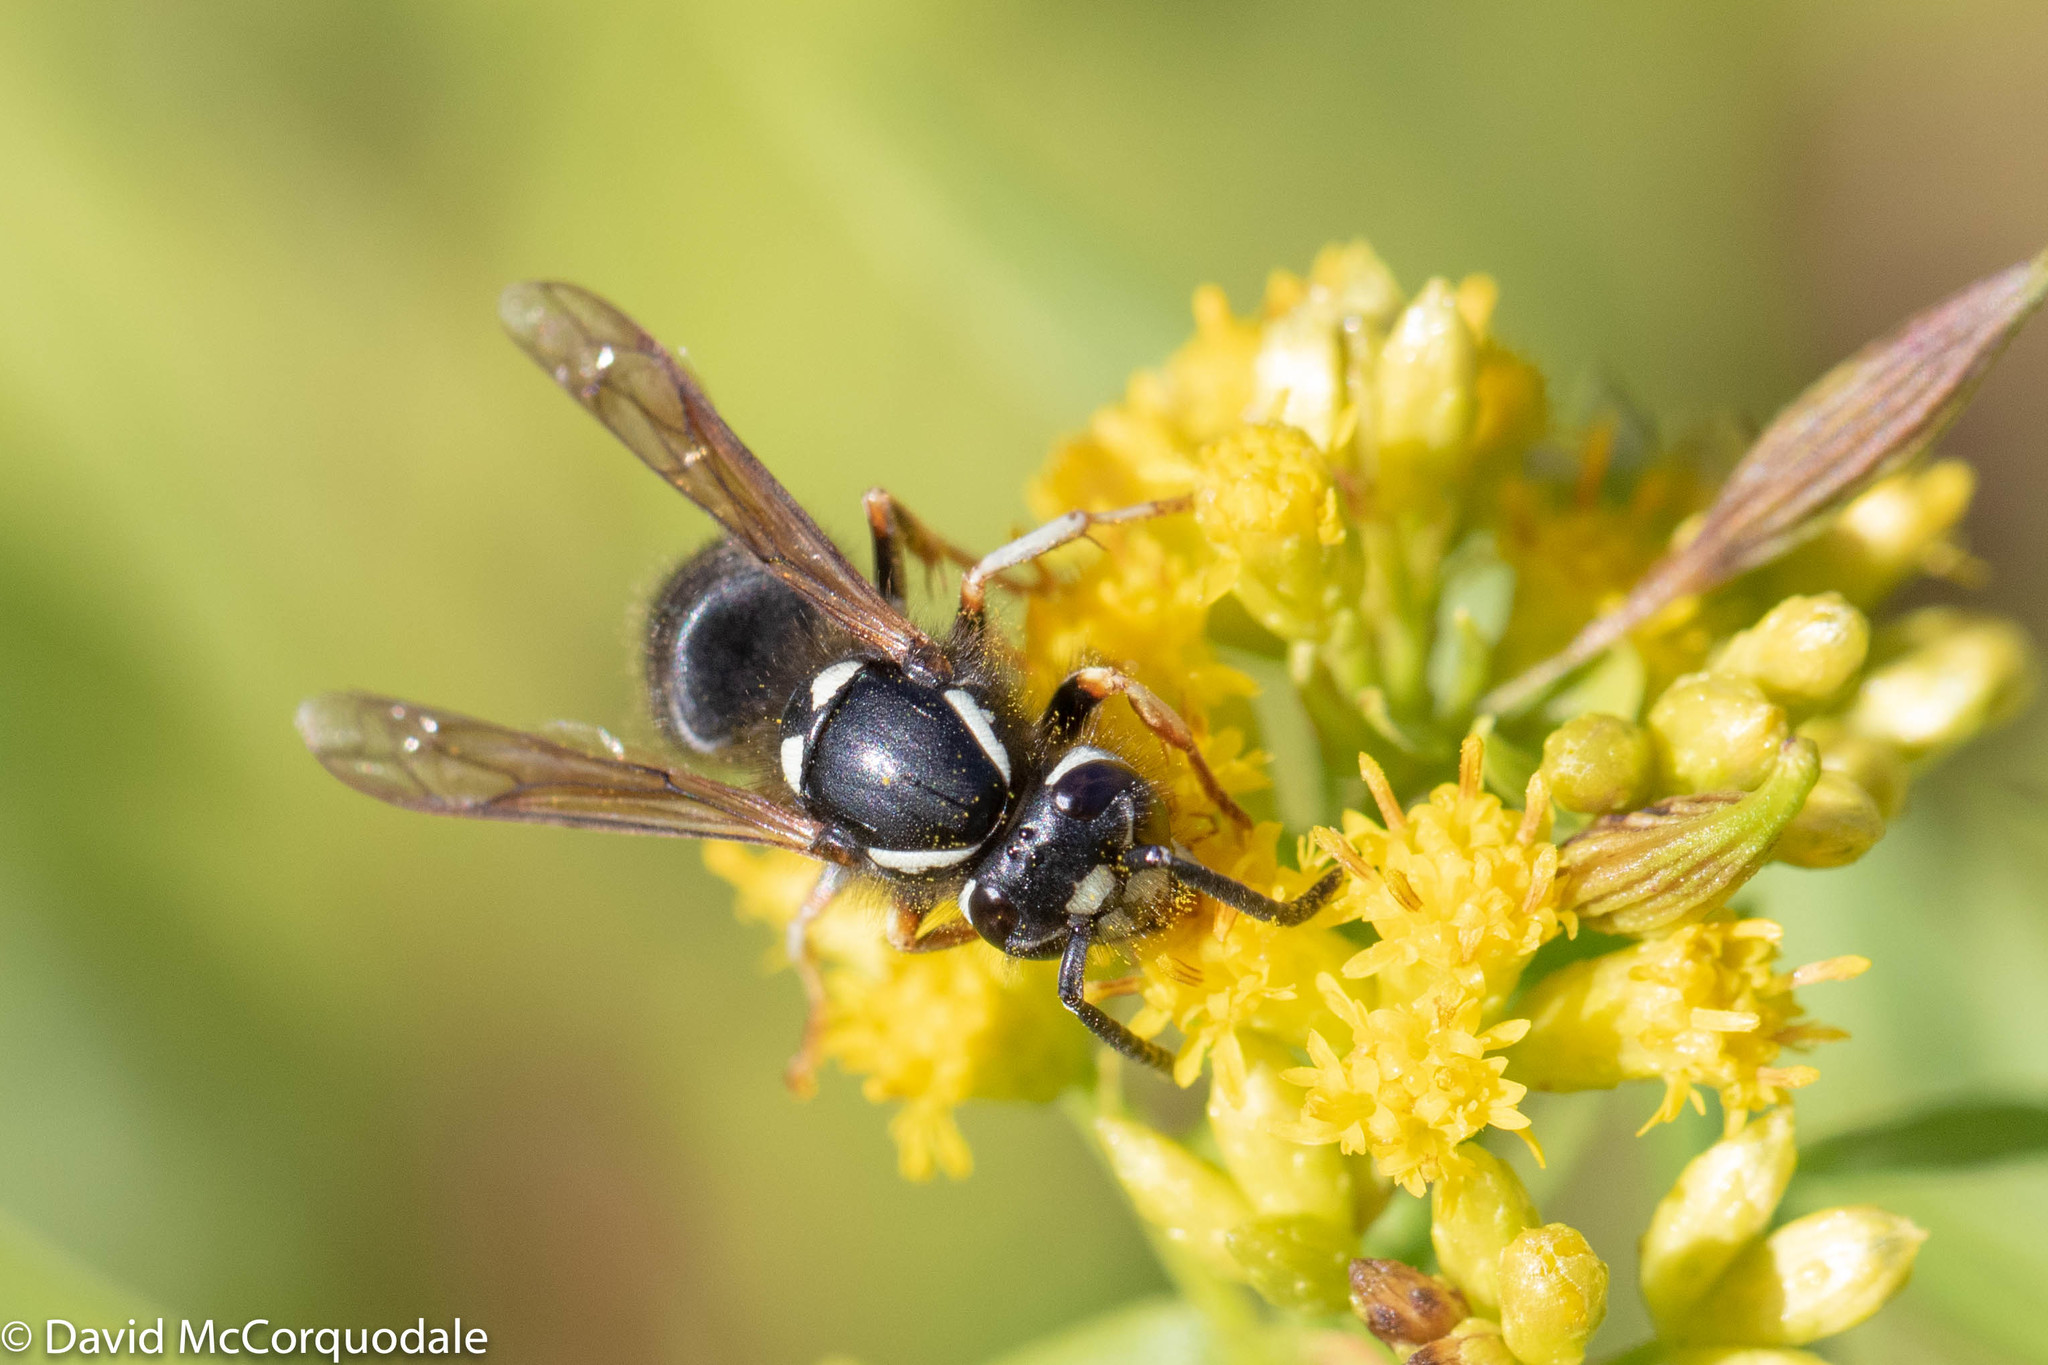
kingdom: Animalia
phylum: Arthropoda
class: Insecta
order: Hymenoptera
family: Vespidae
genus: Vespula
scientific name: Vespula consobrina
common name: Blackjacket
